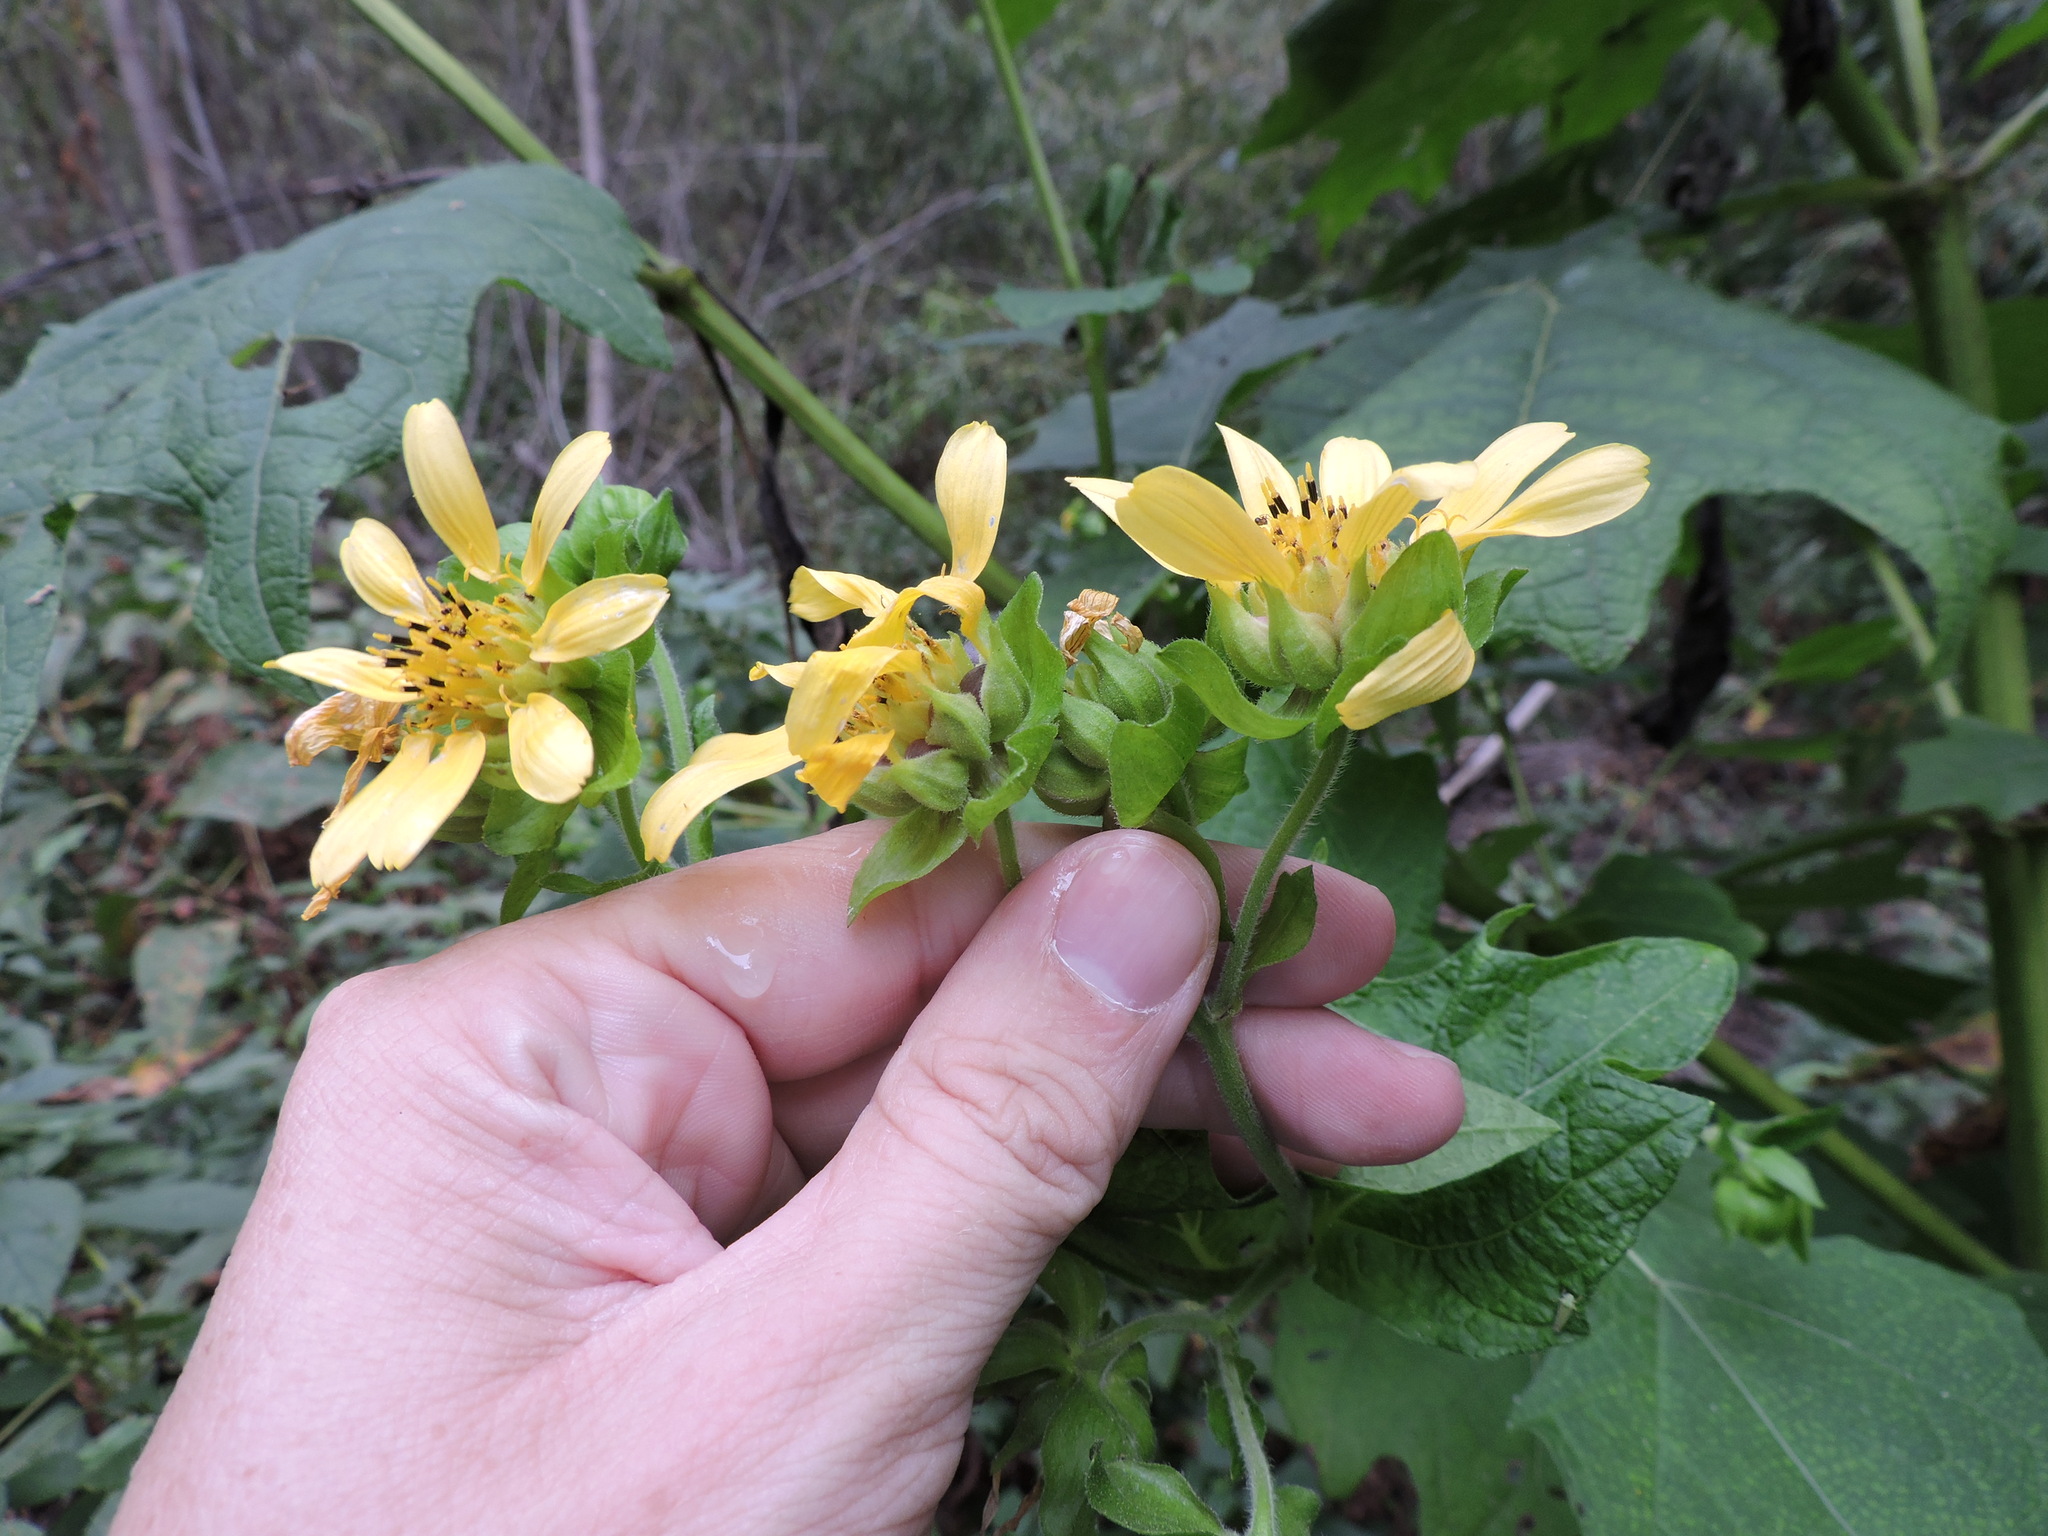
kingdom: Plantae
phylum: Tracheophyta
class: Magnoliopsida
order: Asterales
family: Asteraceae
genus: Smallanthus
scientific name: Smallanthus uvedalia
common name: Bear's-foot
